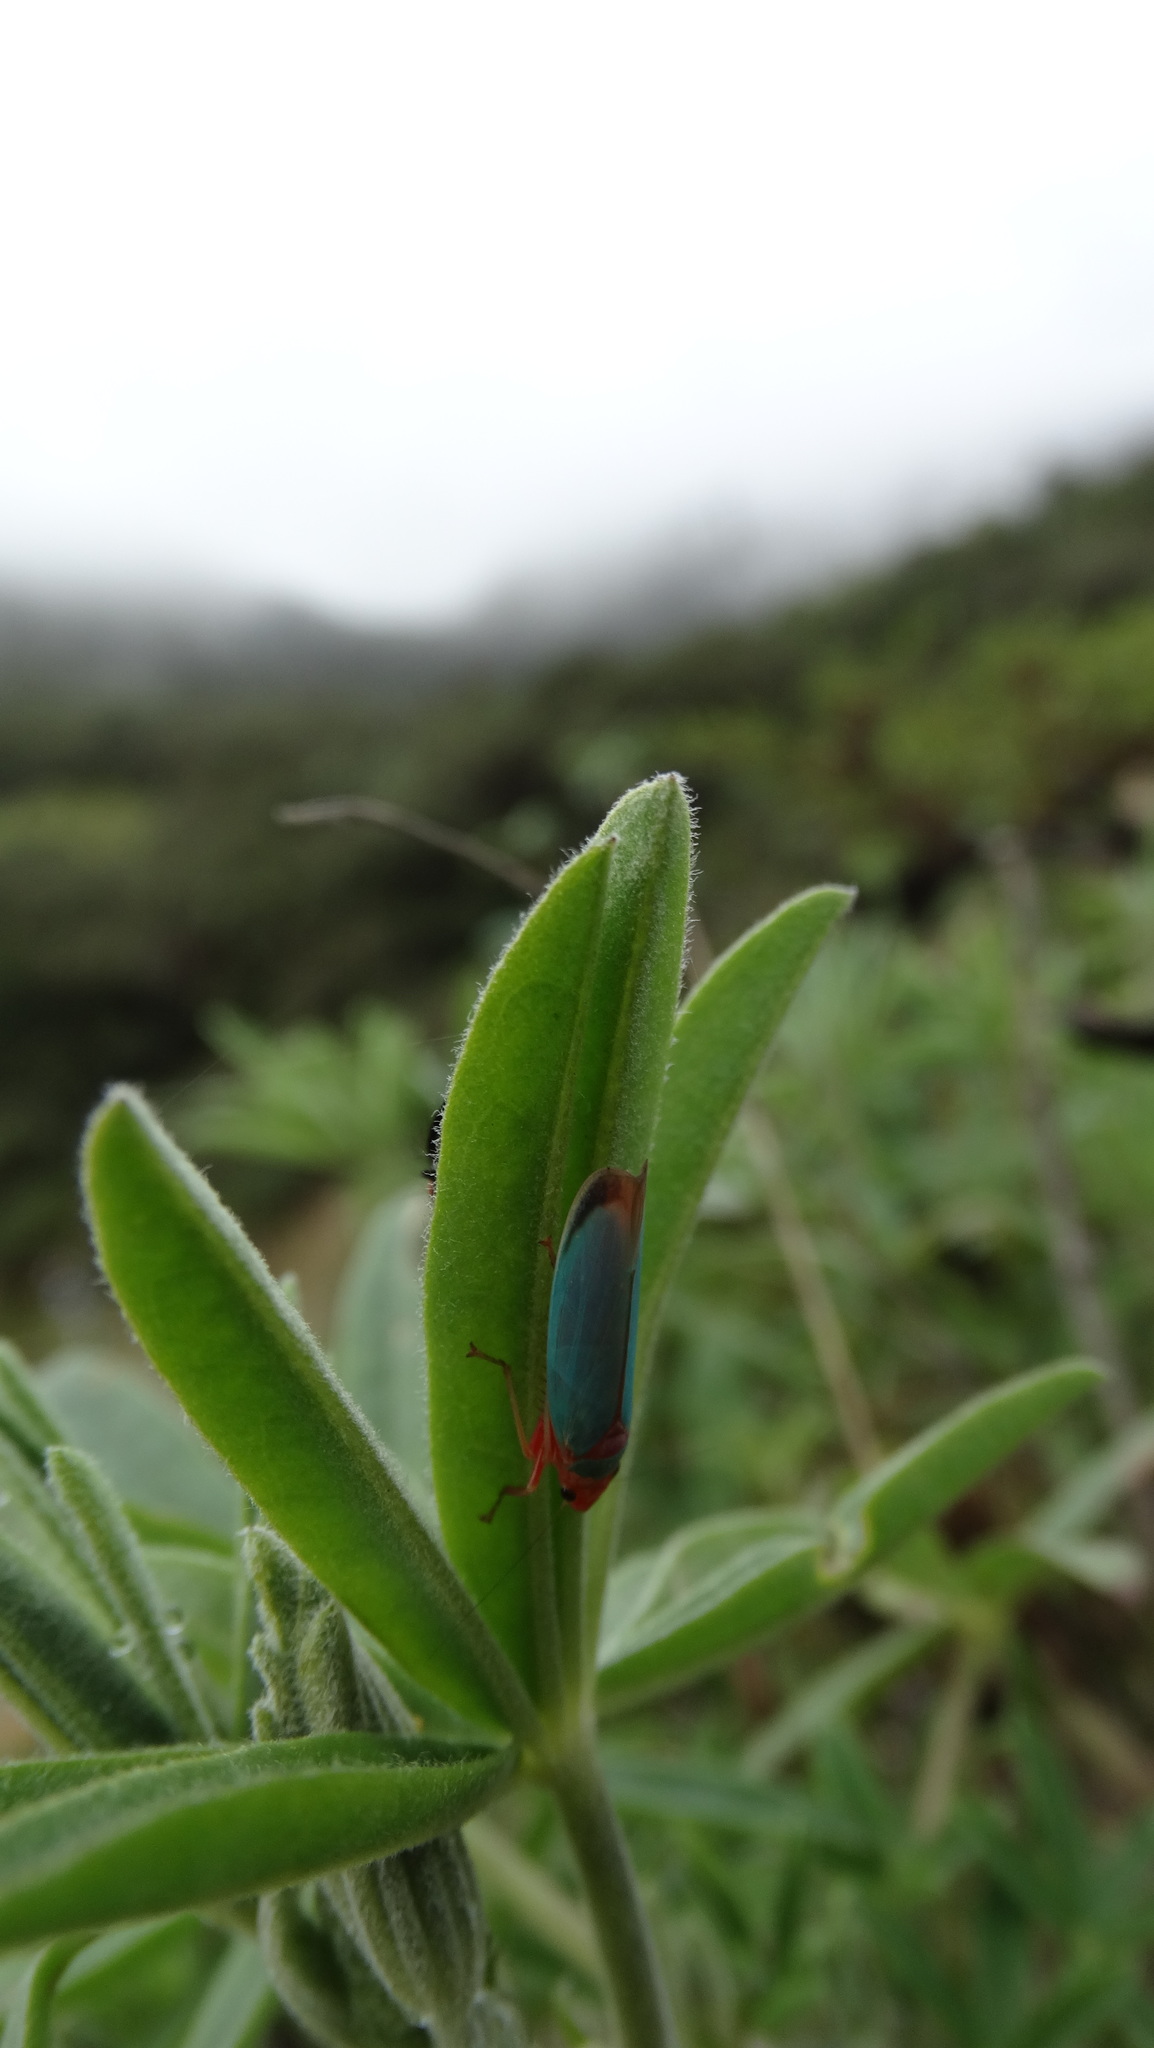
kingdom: Animalia
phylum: Arthropoda
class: Insecta
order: Hemiptera
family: Cicadellidae
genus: Macunolla
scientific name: Macunolla ventralis
